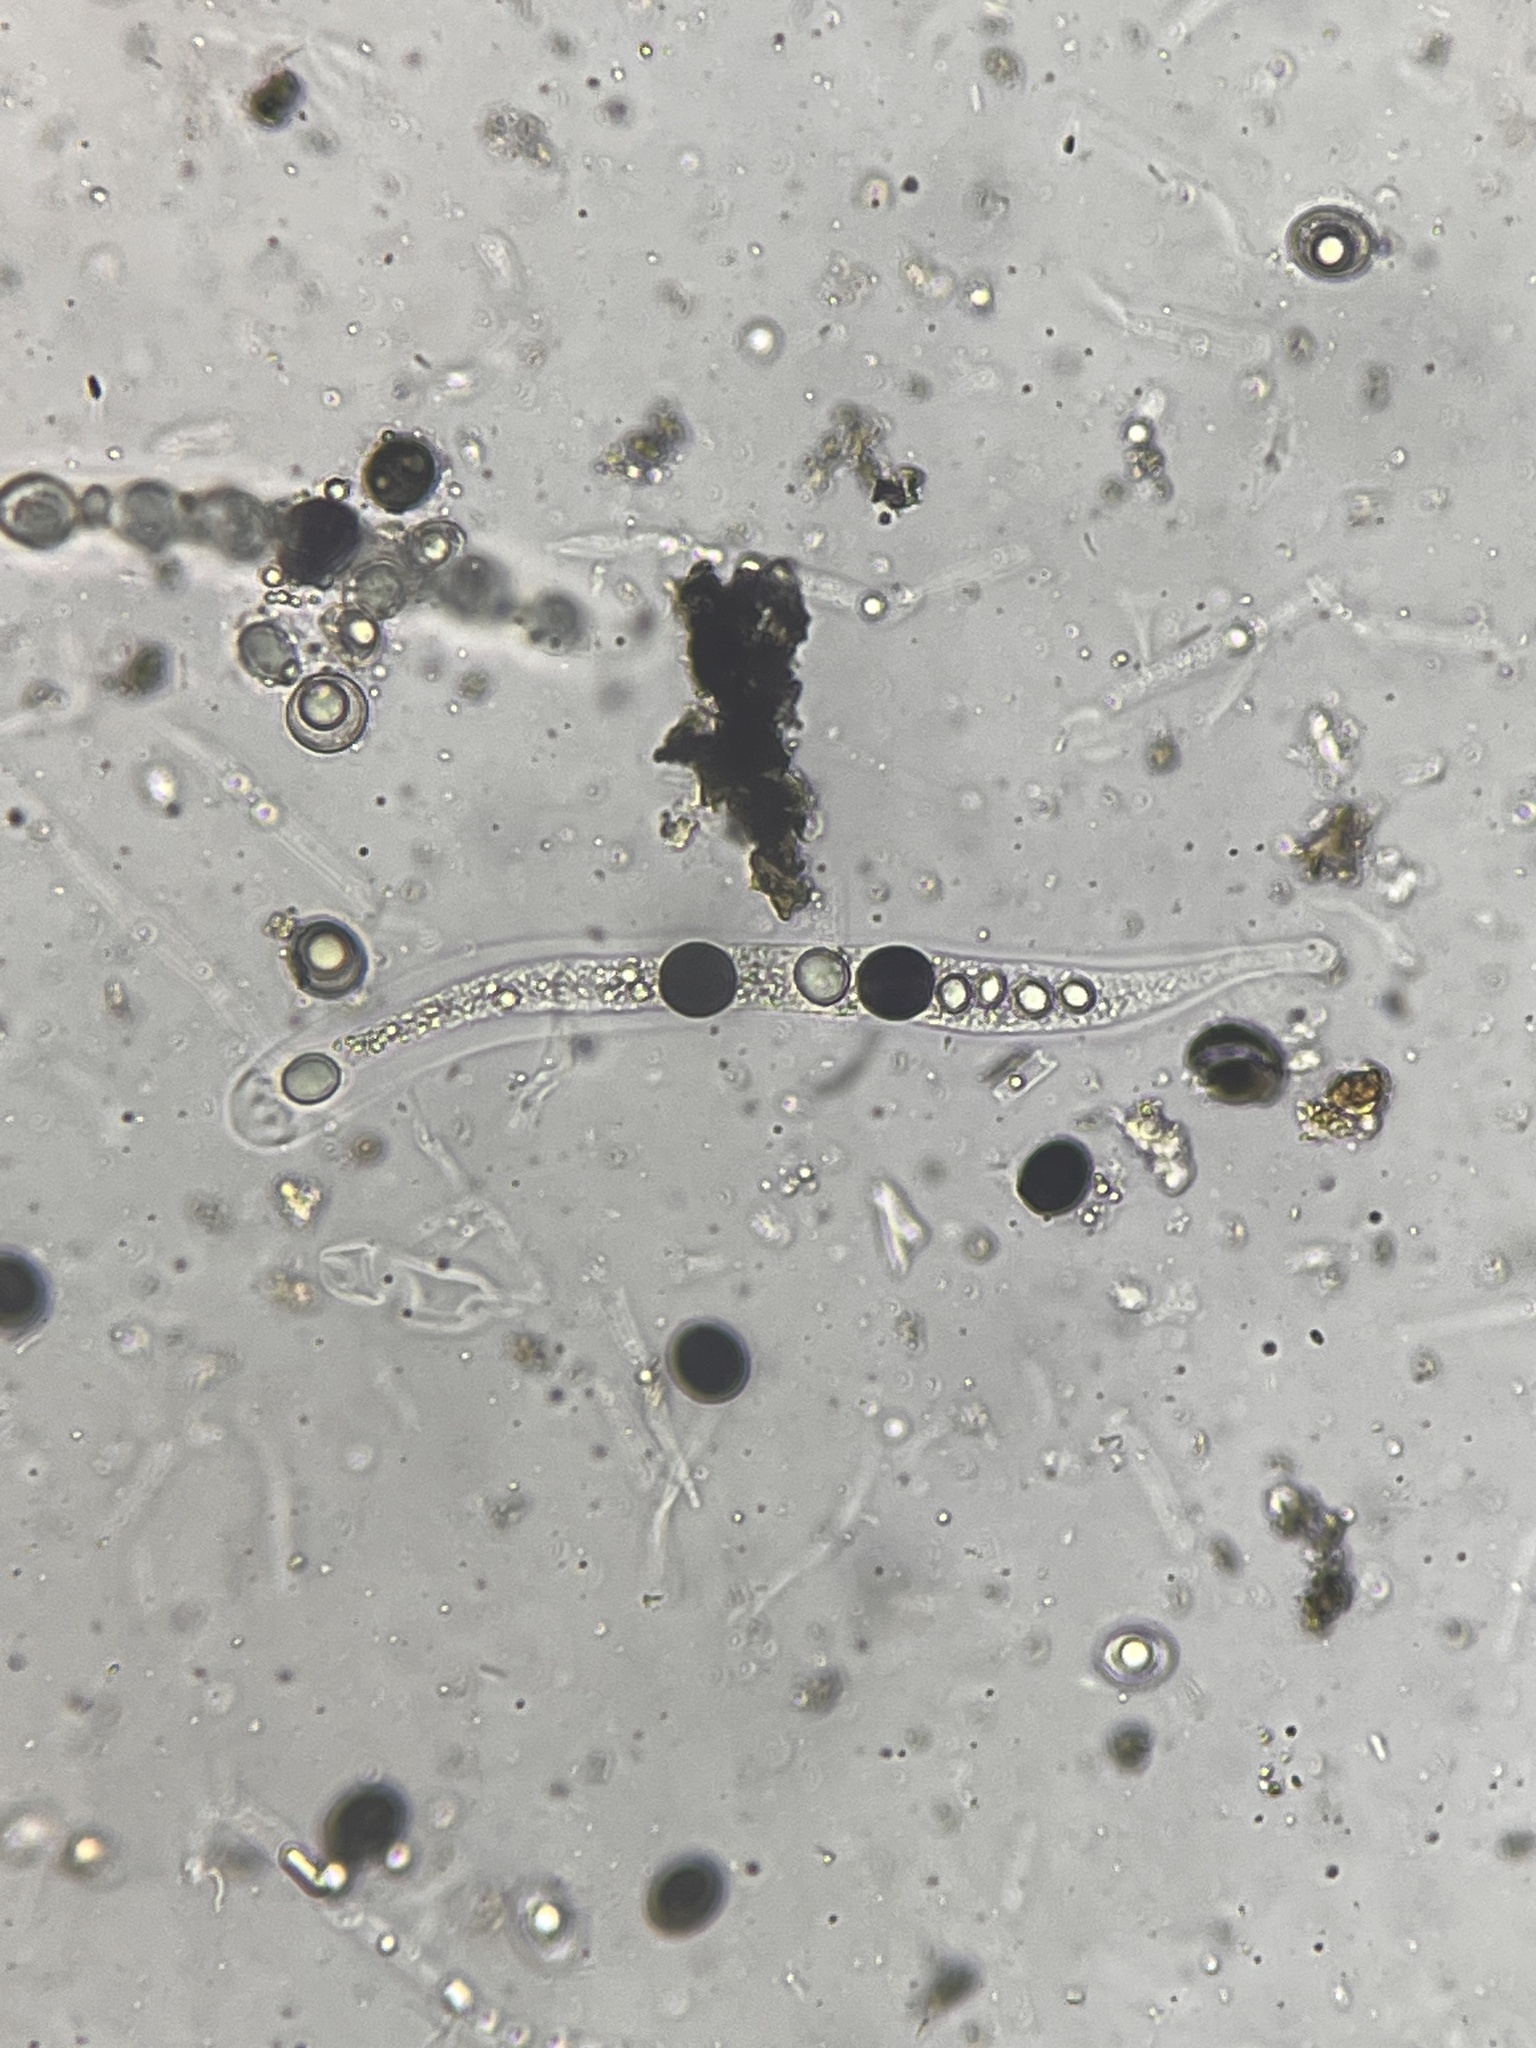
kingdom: Fungi
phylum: Ascomycota
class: Sordariomycetes
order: Xylariales
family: Graphostromataceae
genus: Biscogniauxia
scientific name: Biscogniauxia marginata
